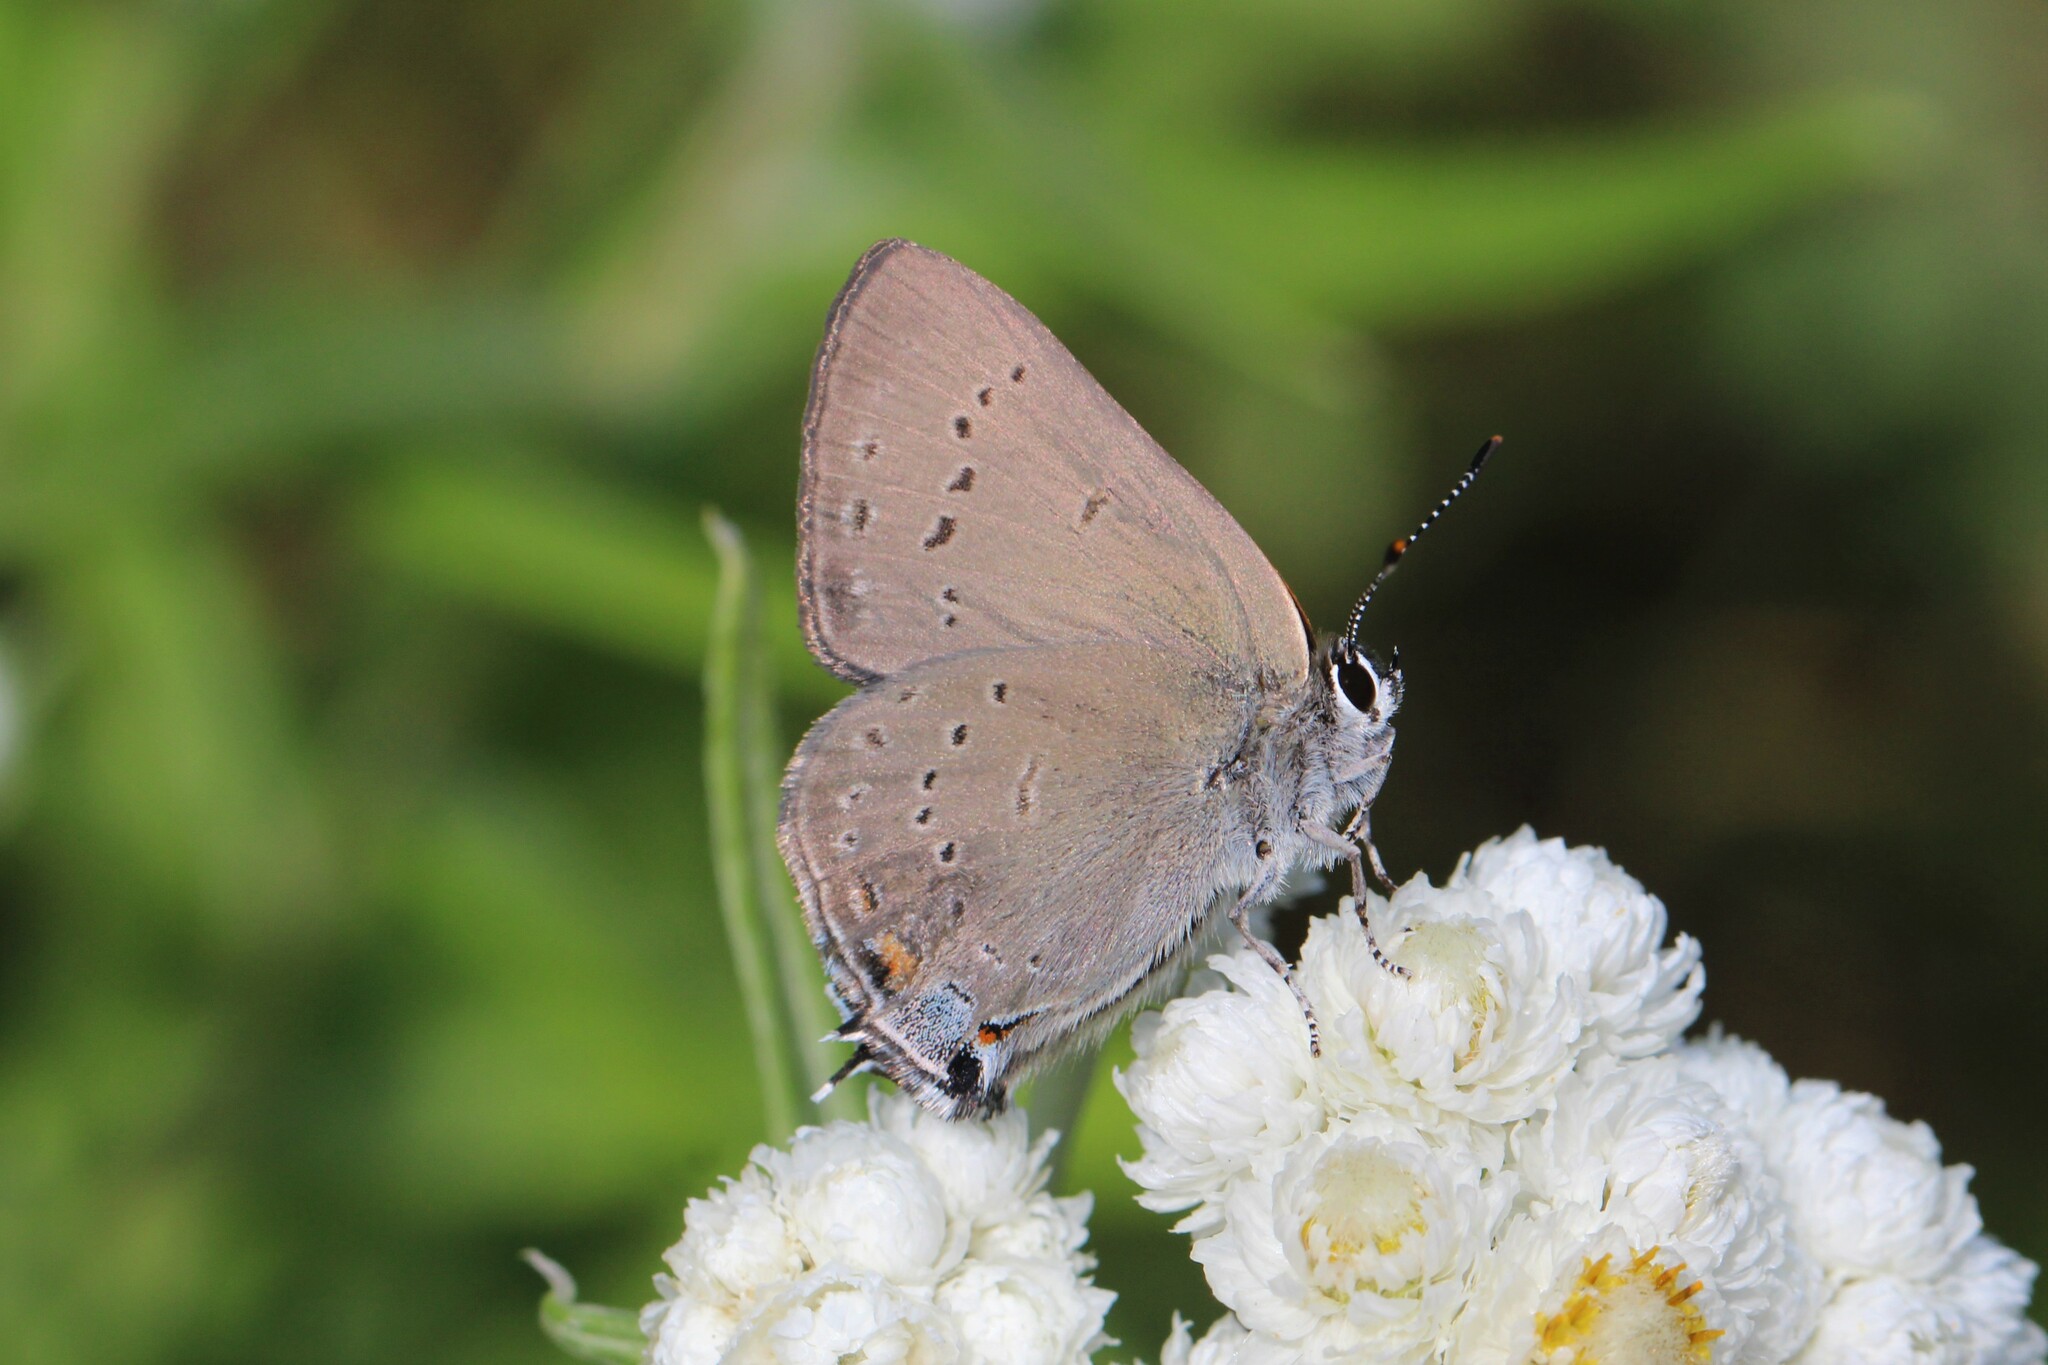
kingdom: Animalia
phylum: Arthropoda
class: Insecta
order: Lepidoptera
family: Lycaenidae
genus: Strymon
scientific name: Strymon sylvinus
